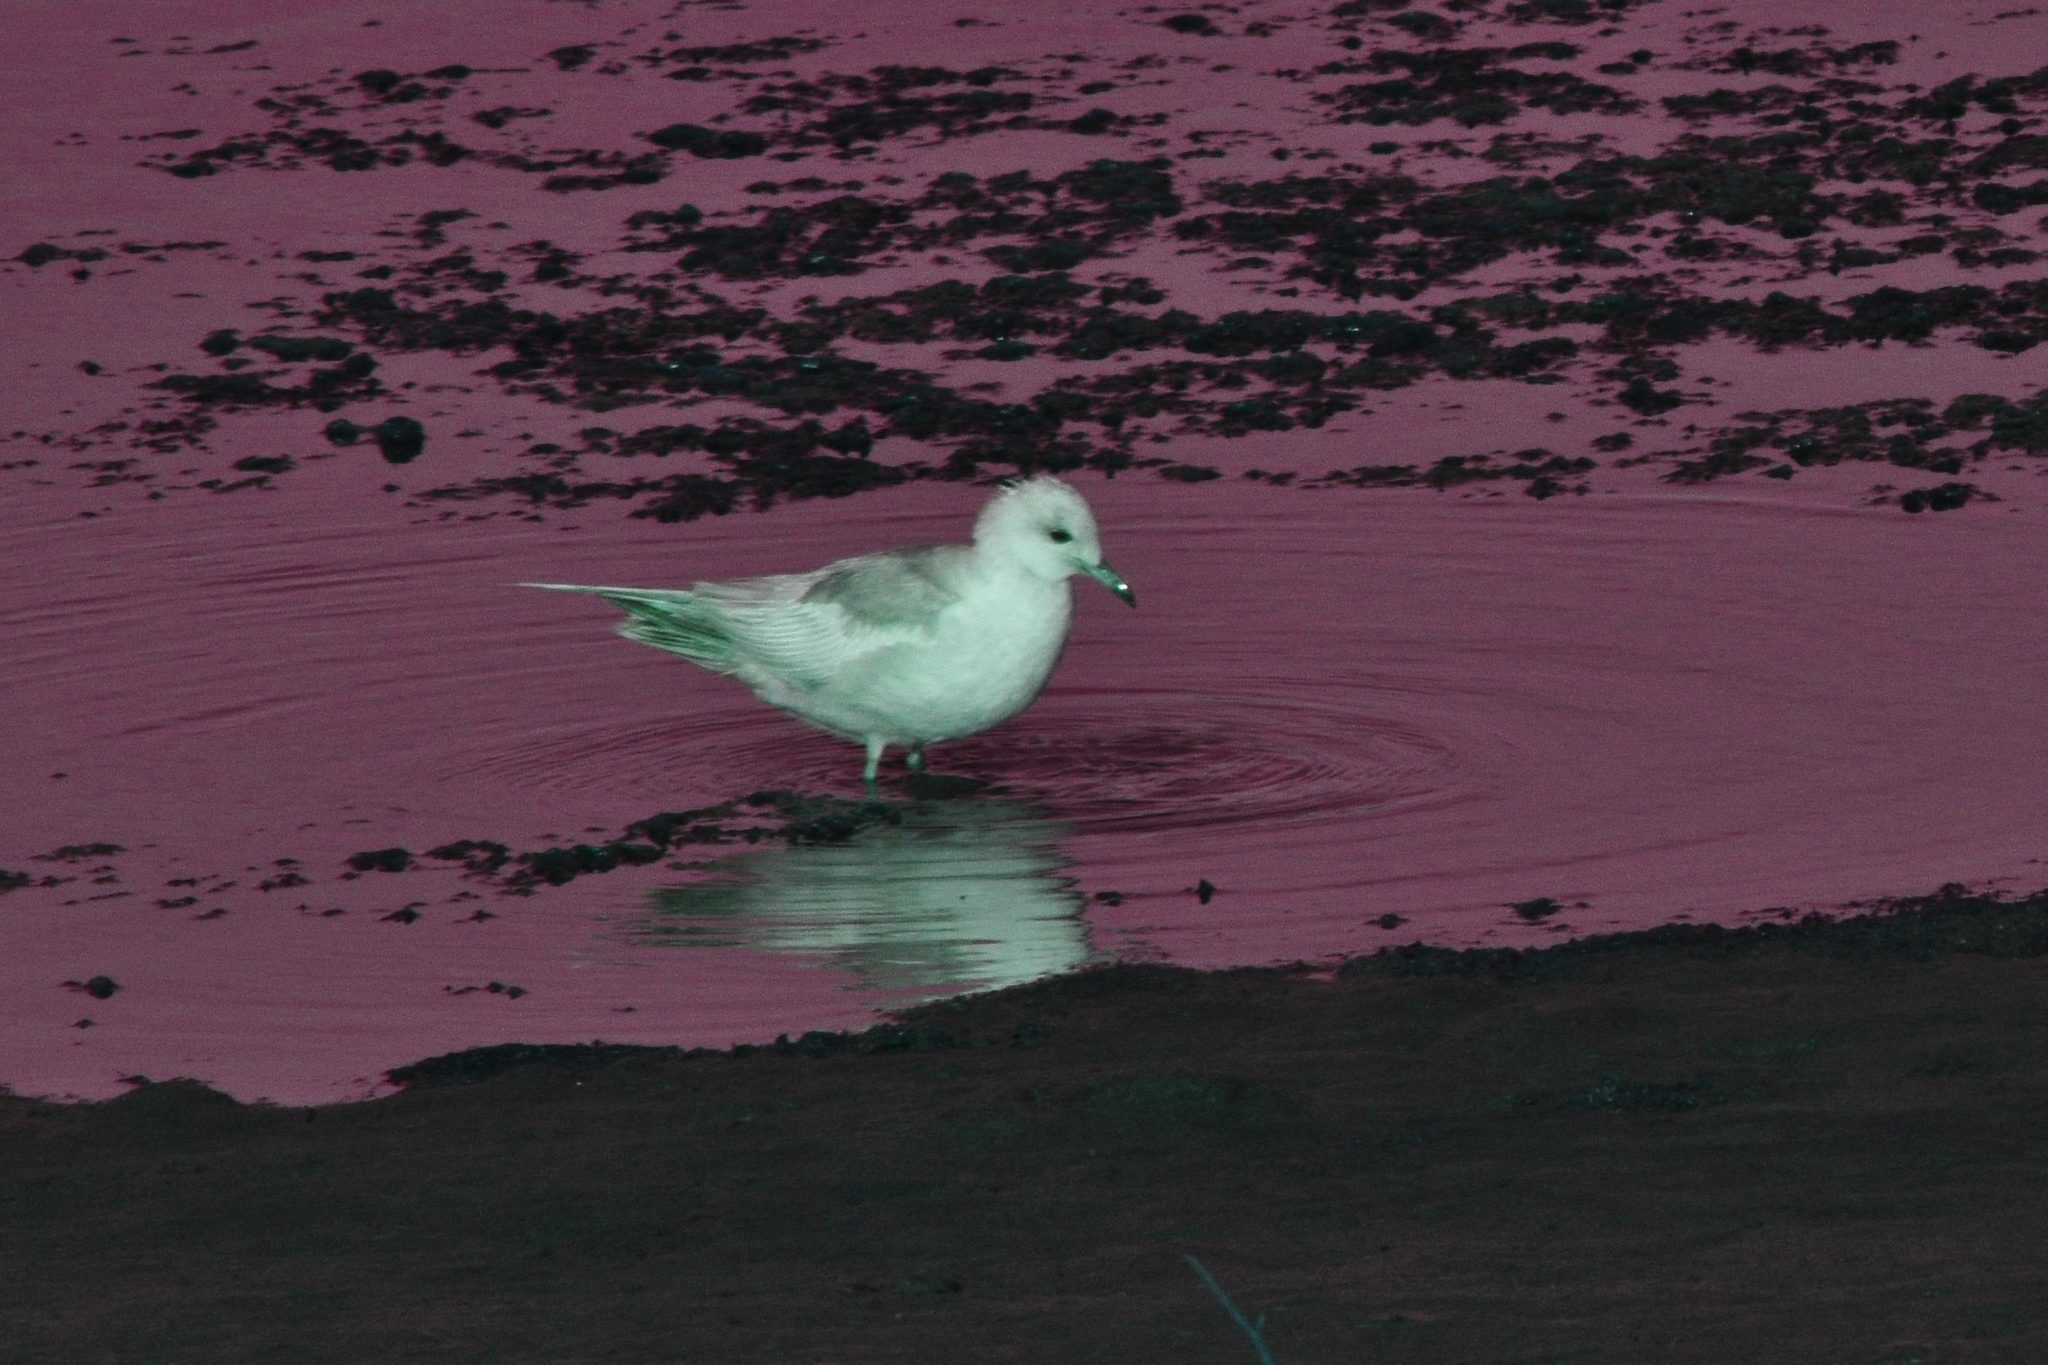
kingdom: Animalia
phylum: Chordata
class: Aves
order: Charadriiformes
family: Laridae
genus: Larus
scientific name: Larus brachyrhynchus
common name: Short-billed gull
